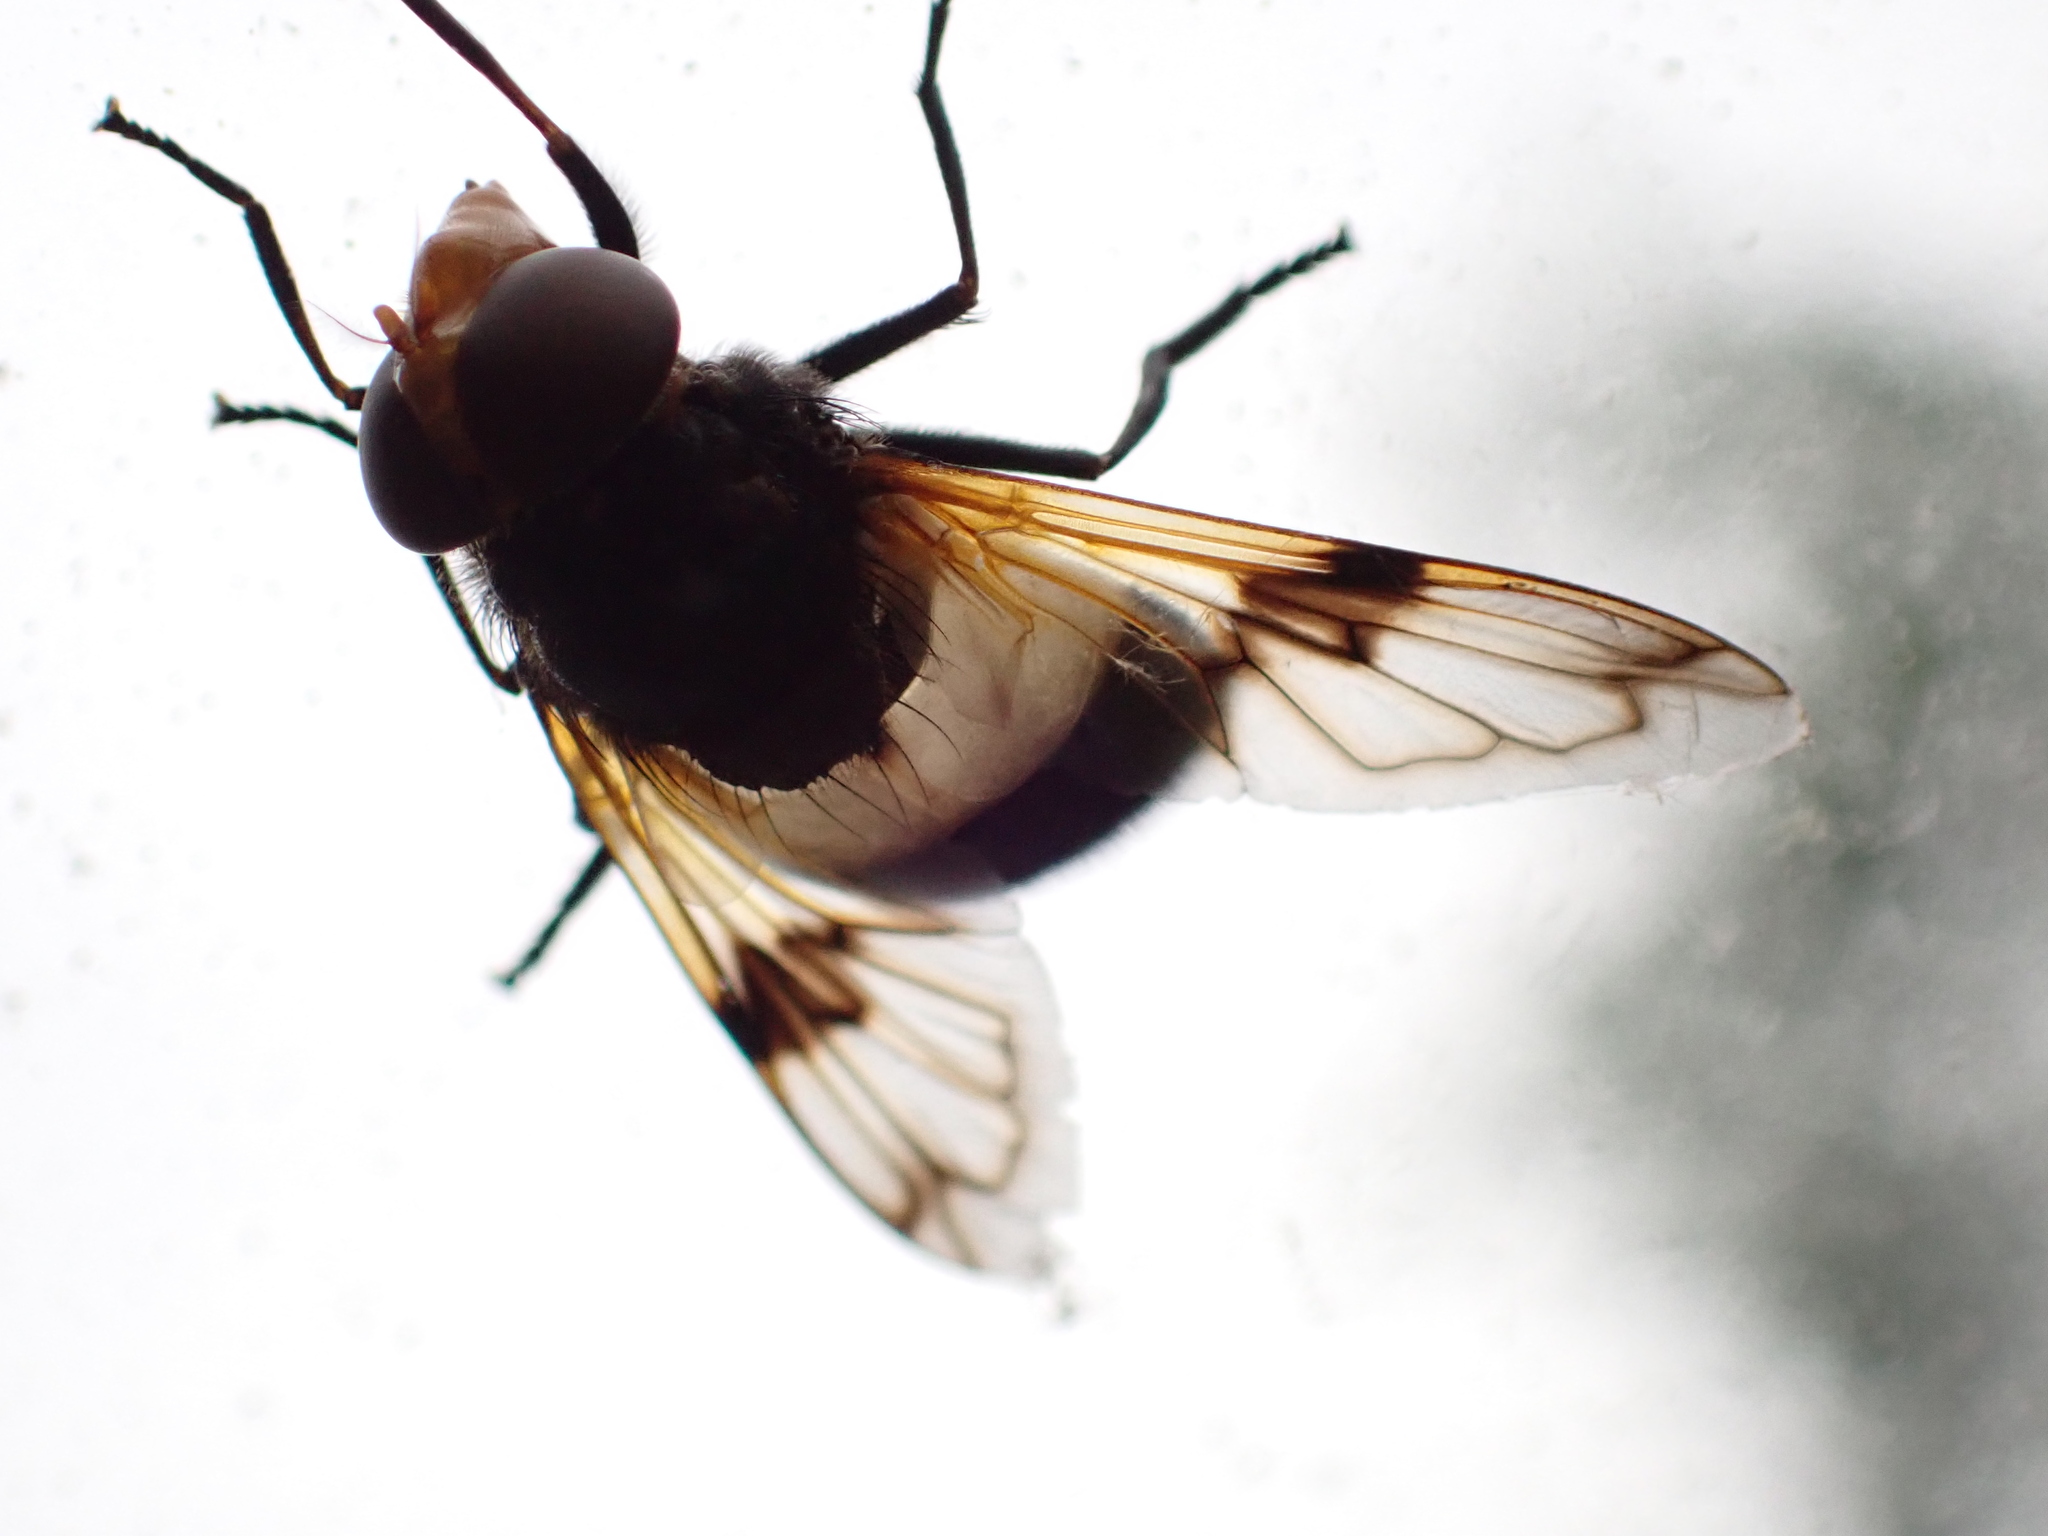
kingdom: Animalia
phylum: Arthropoda
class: Insecta
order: Diptera
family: Syrphidae
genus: Volucella
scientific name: Volucella pellucens
